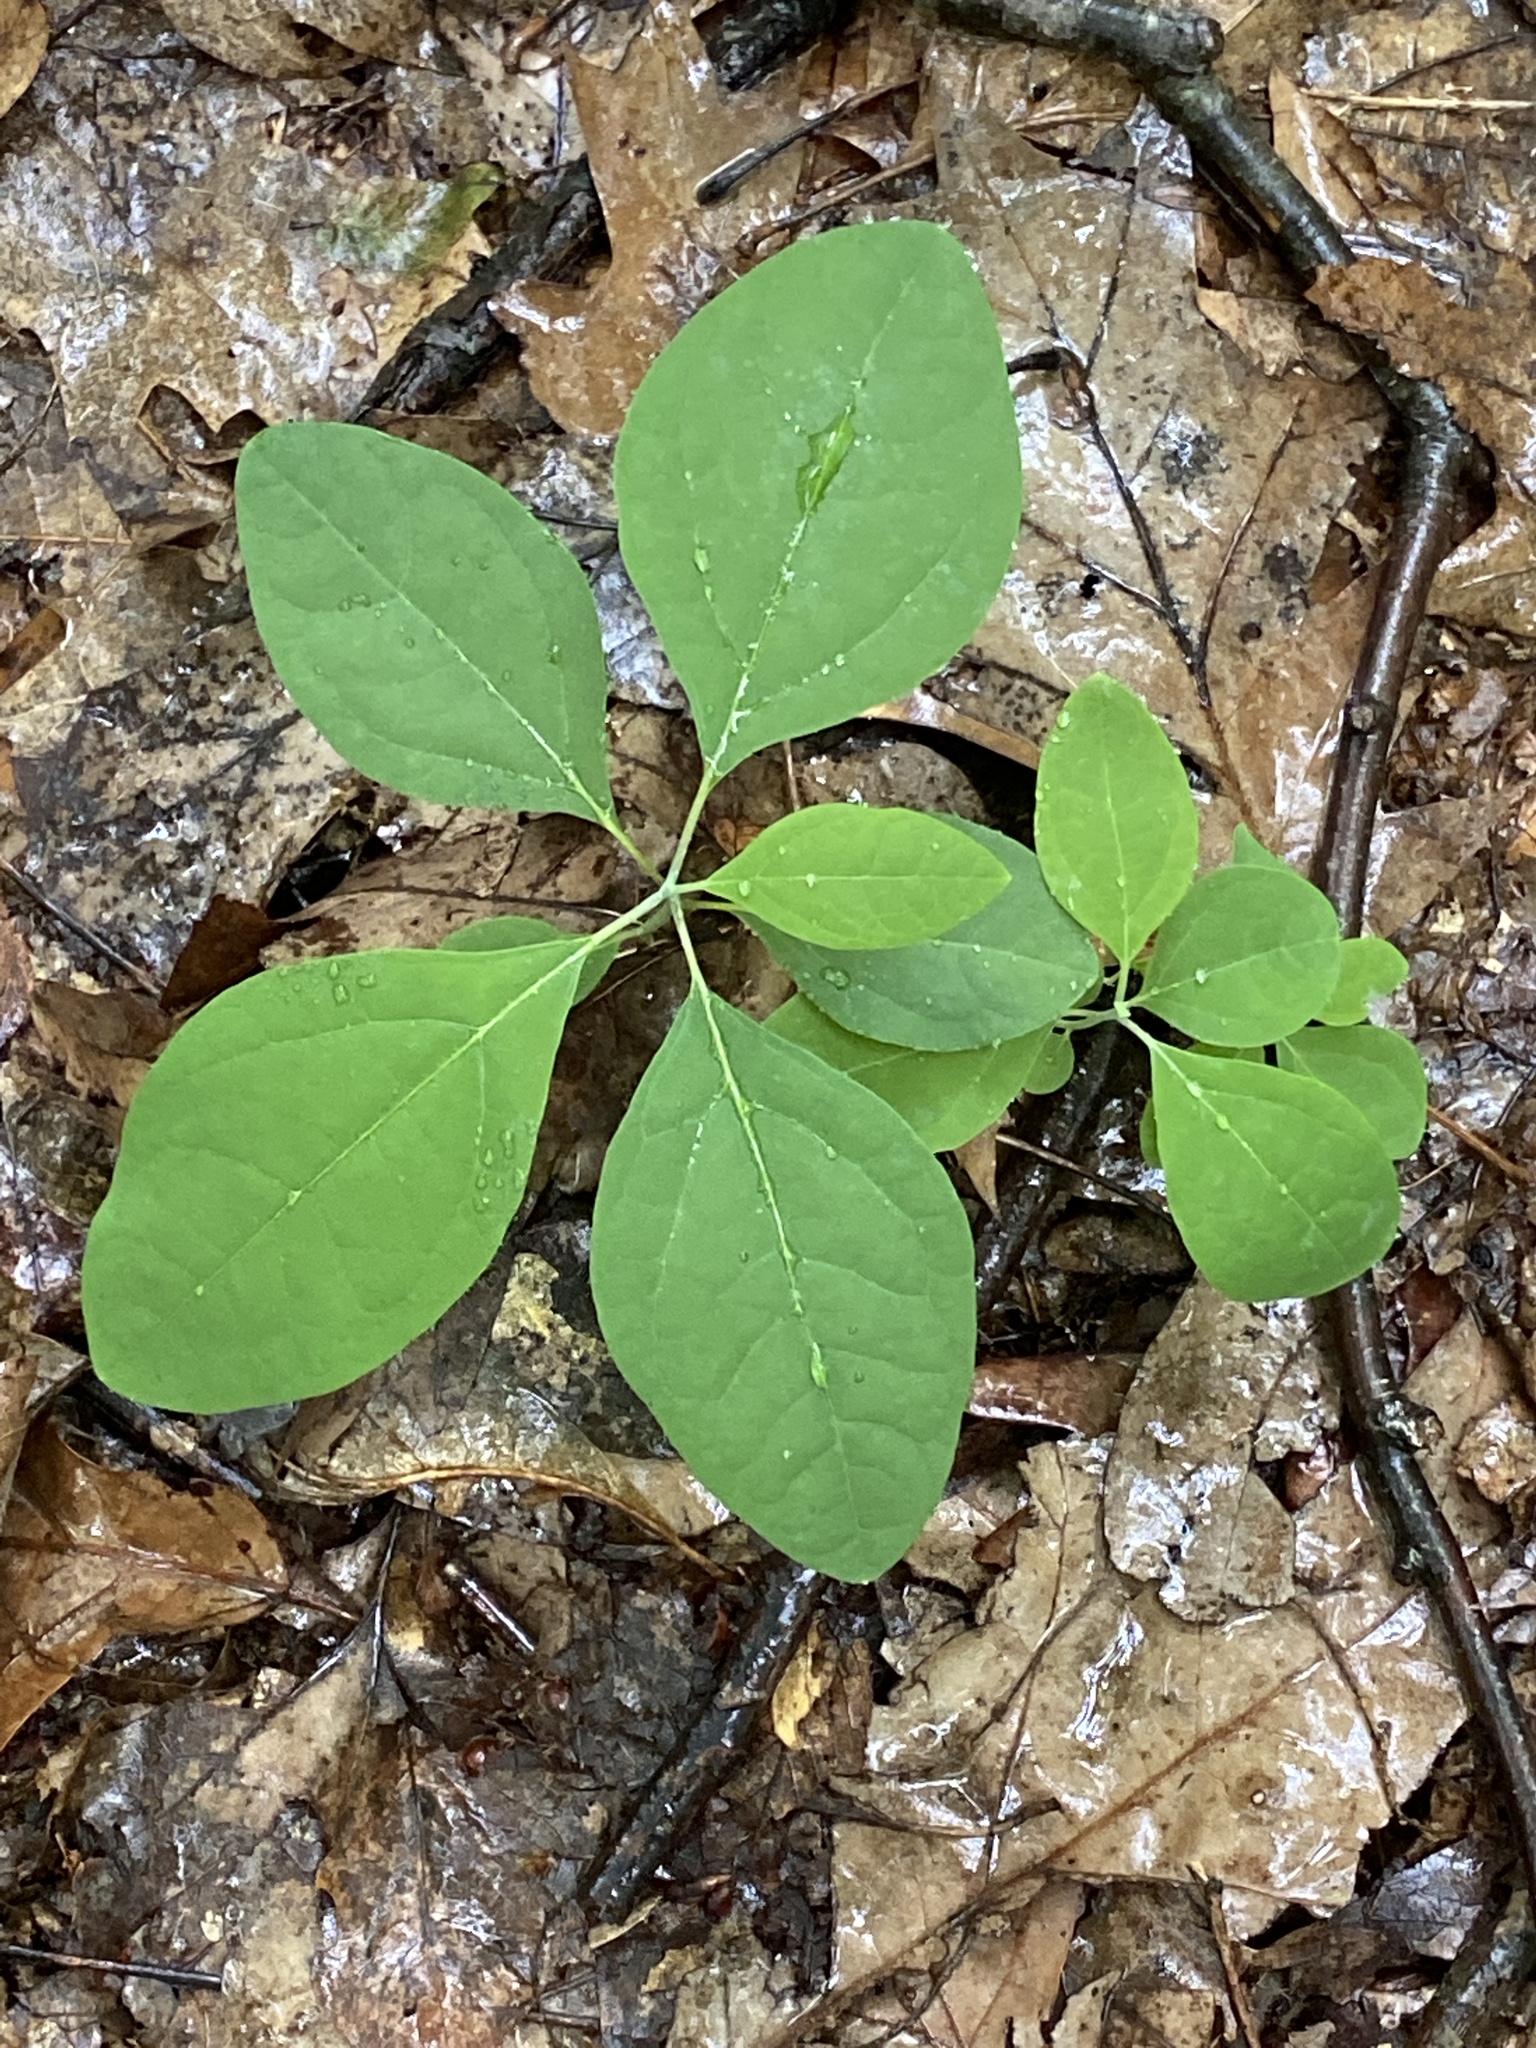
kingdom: Plantae
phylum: Tracheophyta
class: Magnoliopsida
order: Laurales
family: Lauraceae
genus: Sassafras
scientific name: Sassafras albidum
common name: Sassafras
